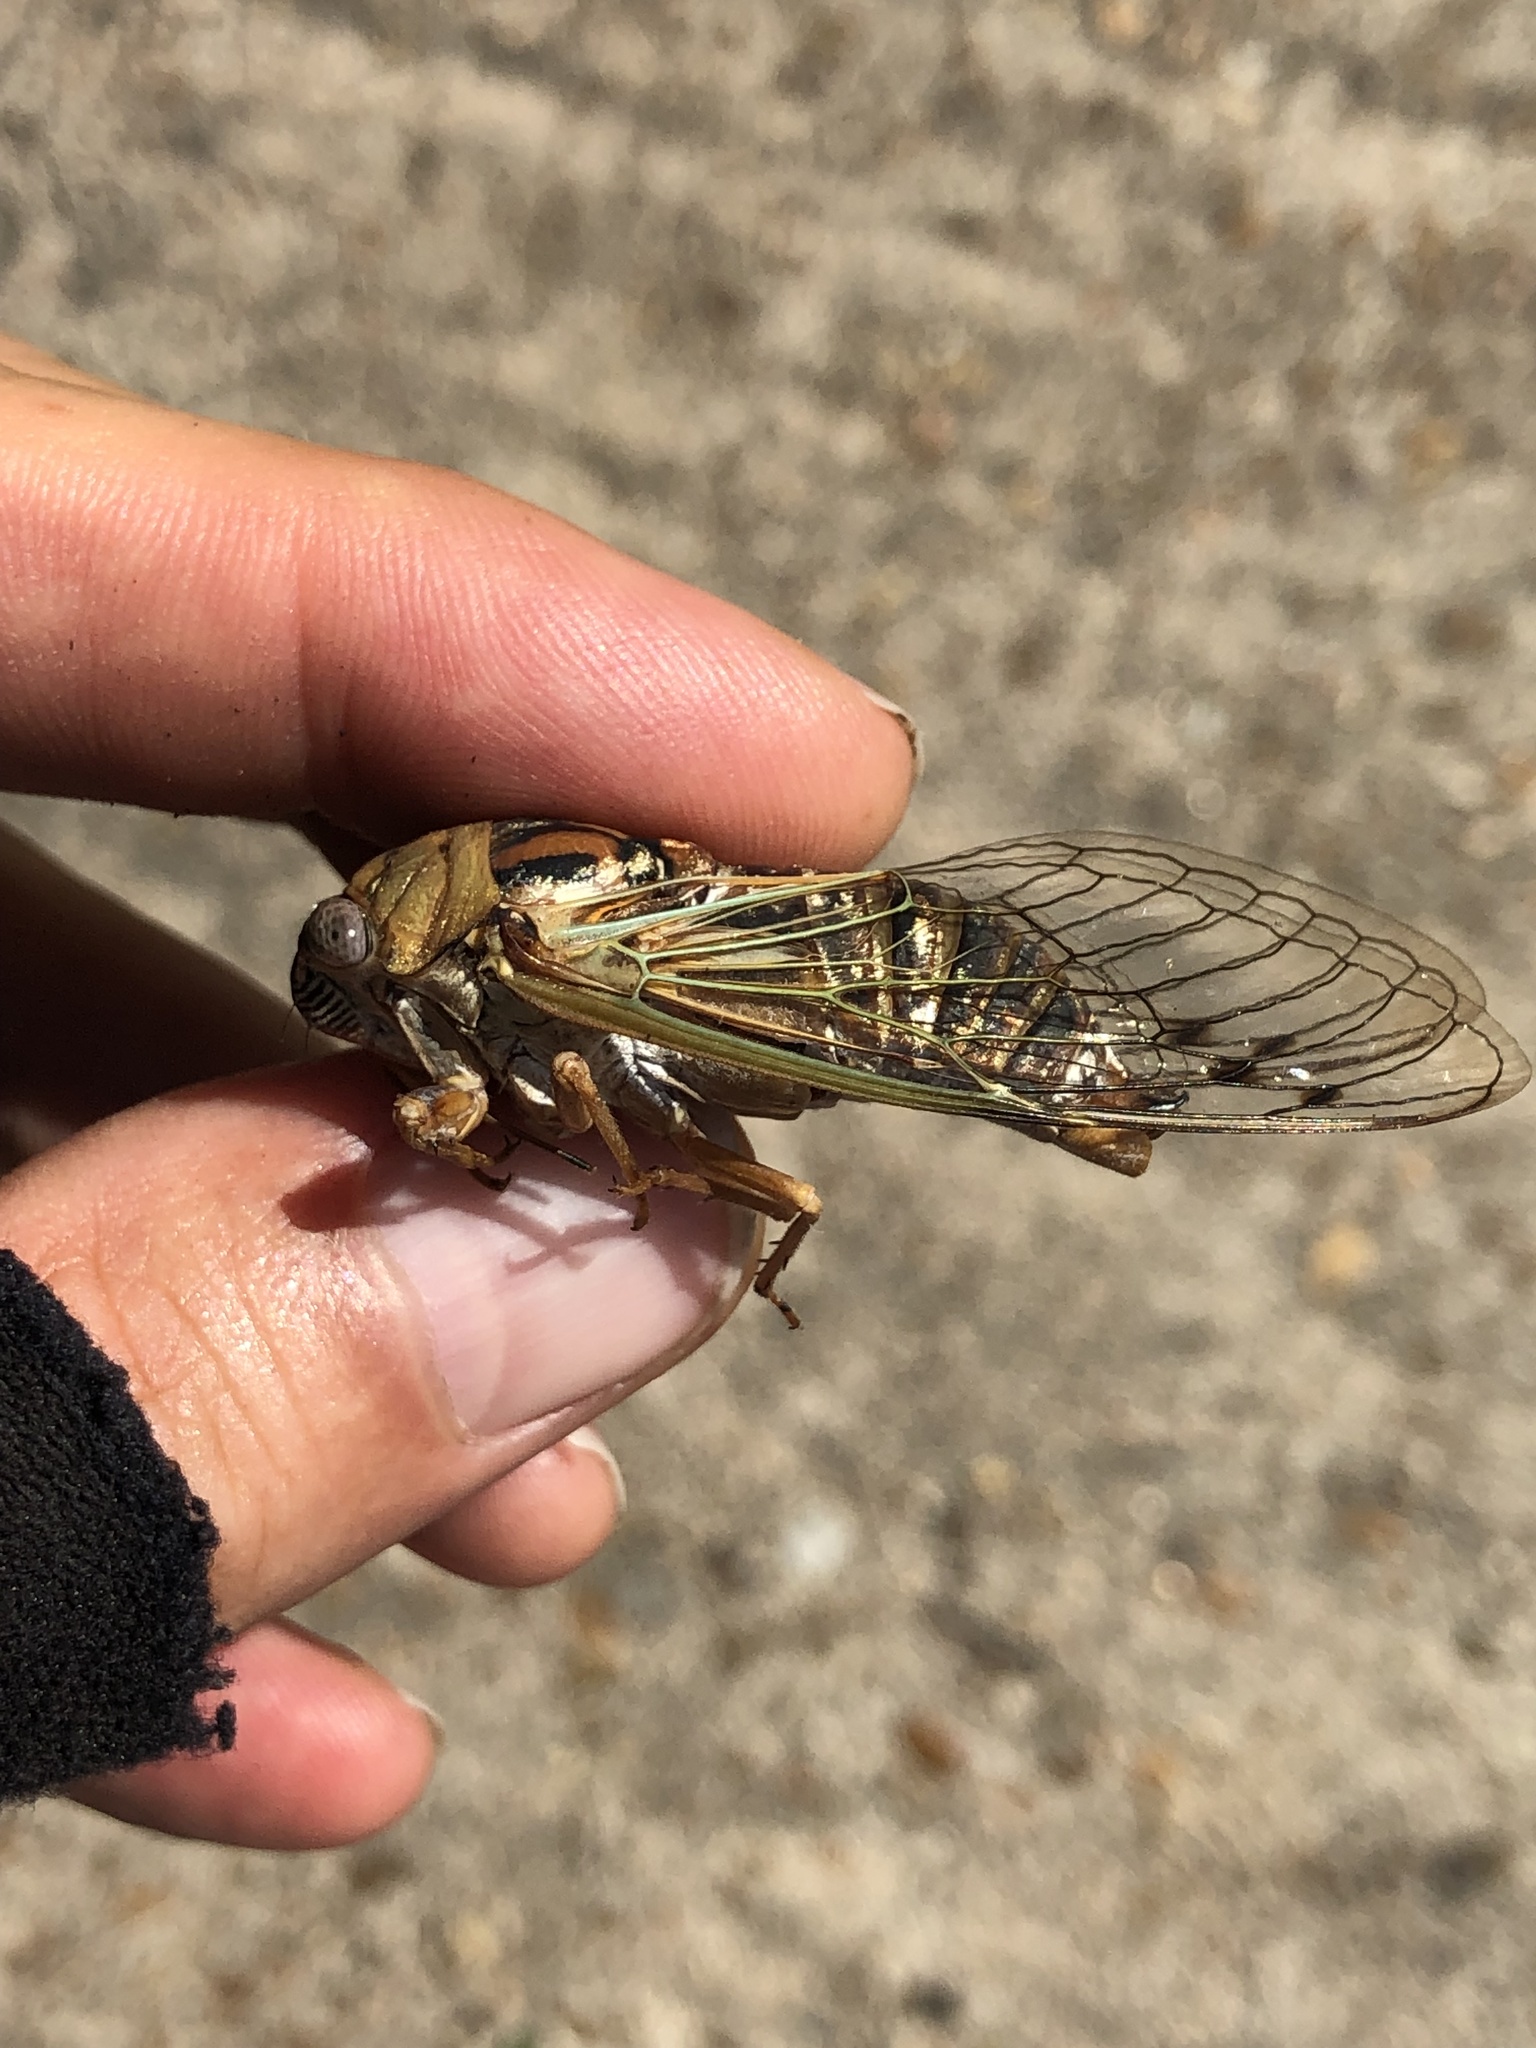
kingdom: Animalia
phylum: Arthropoda
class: Insecta
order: Hemiptera
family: Cicadidae
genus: Megatibicen
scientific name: Megatibicen resh
